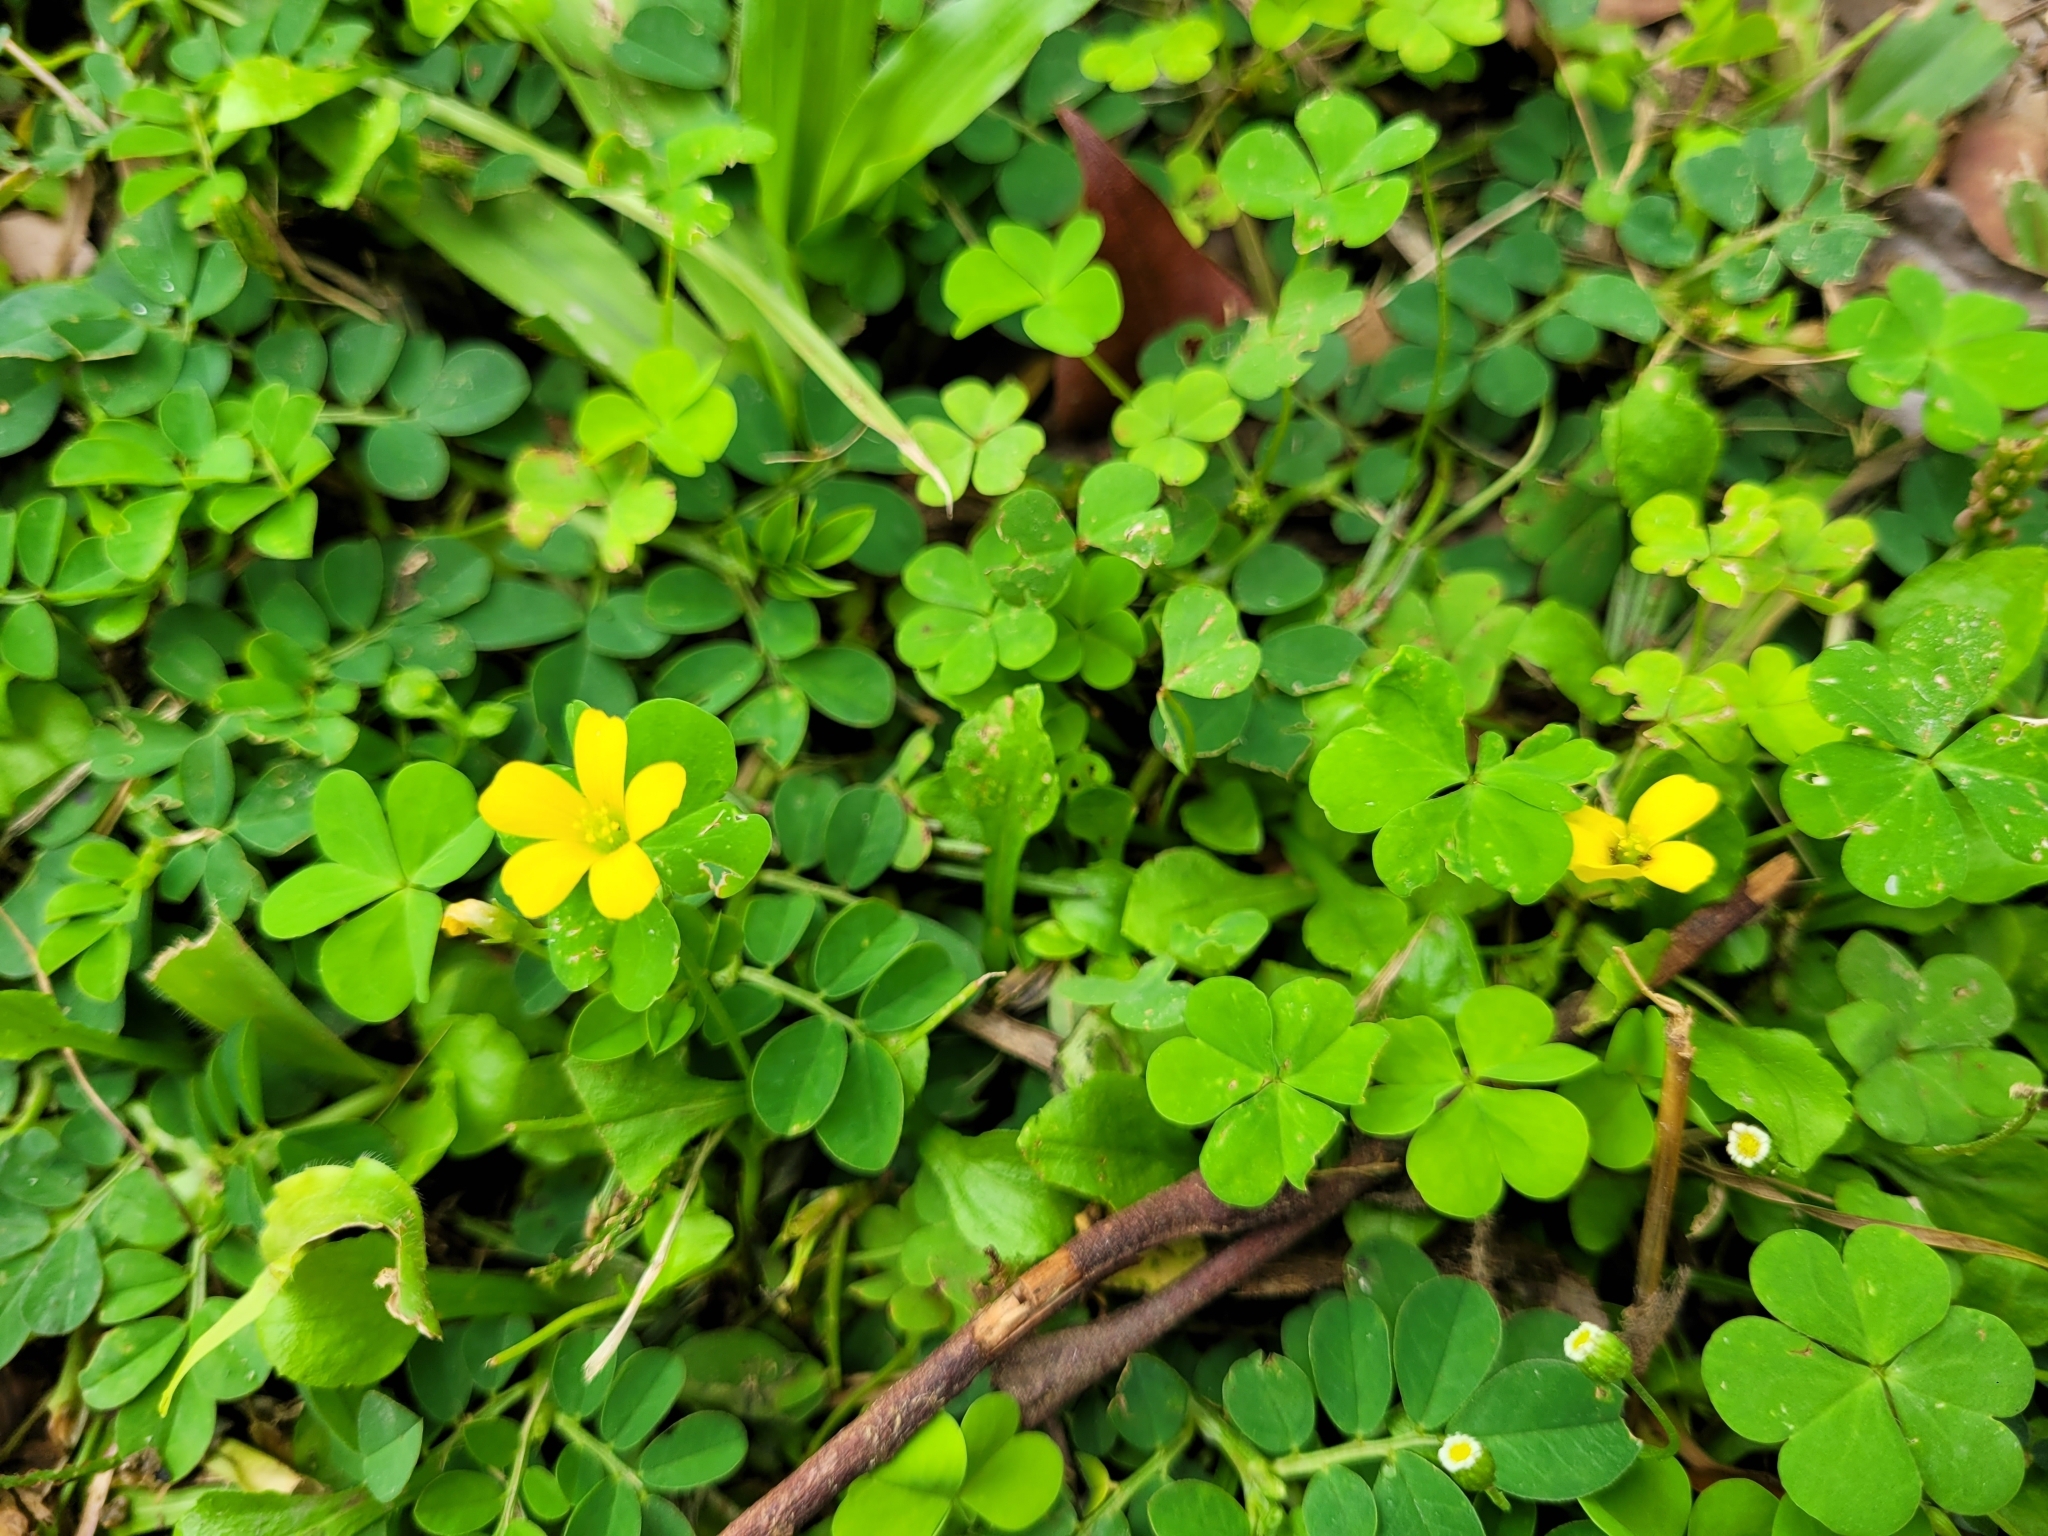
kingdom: Plantae
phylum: Tracheophyta
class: Magnoliopsida
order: Oxalidales
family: Oxalidaceae
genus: Oxalis
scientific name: Oxalis corniculata
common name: Procumbent yellow-sorrel
